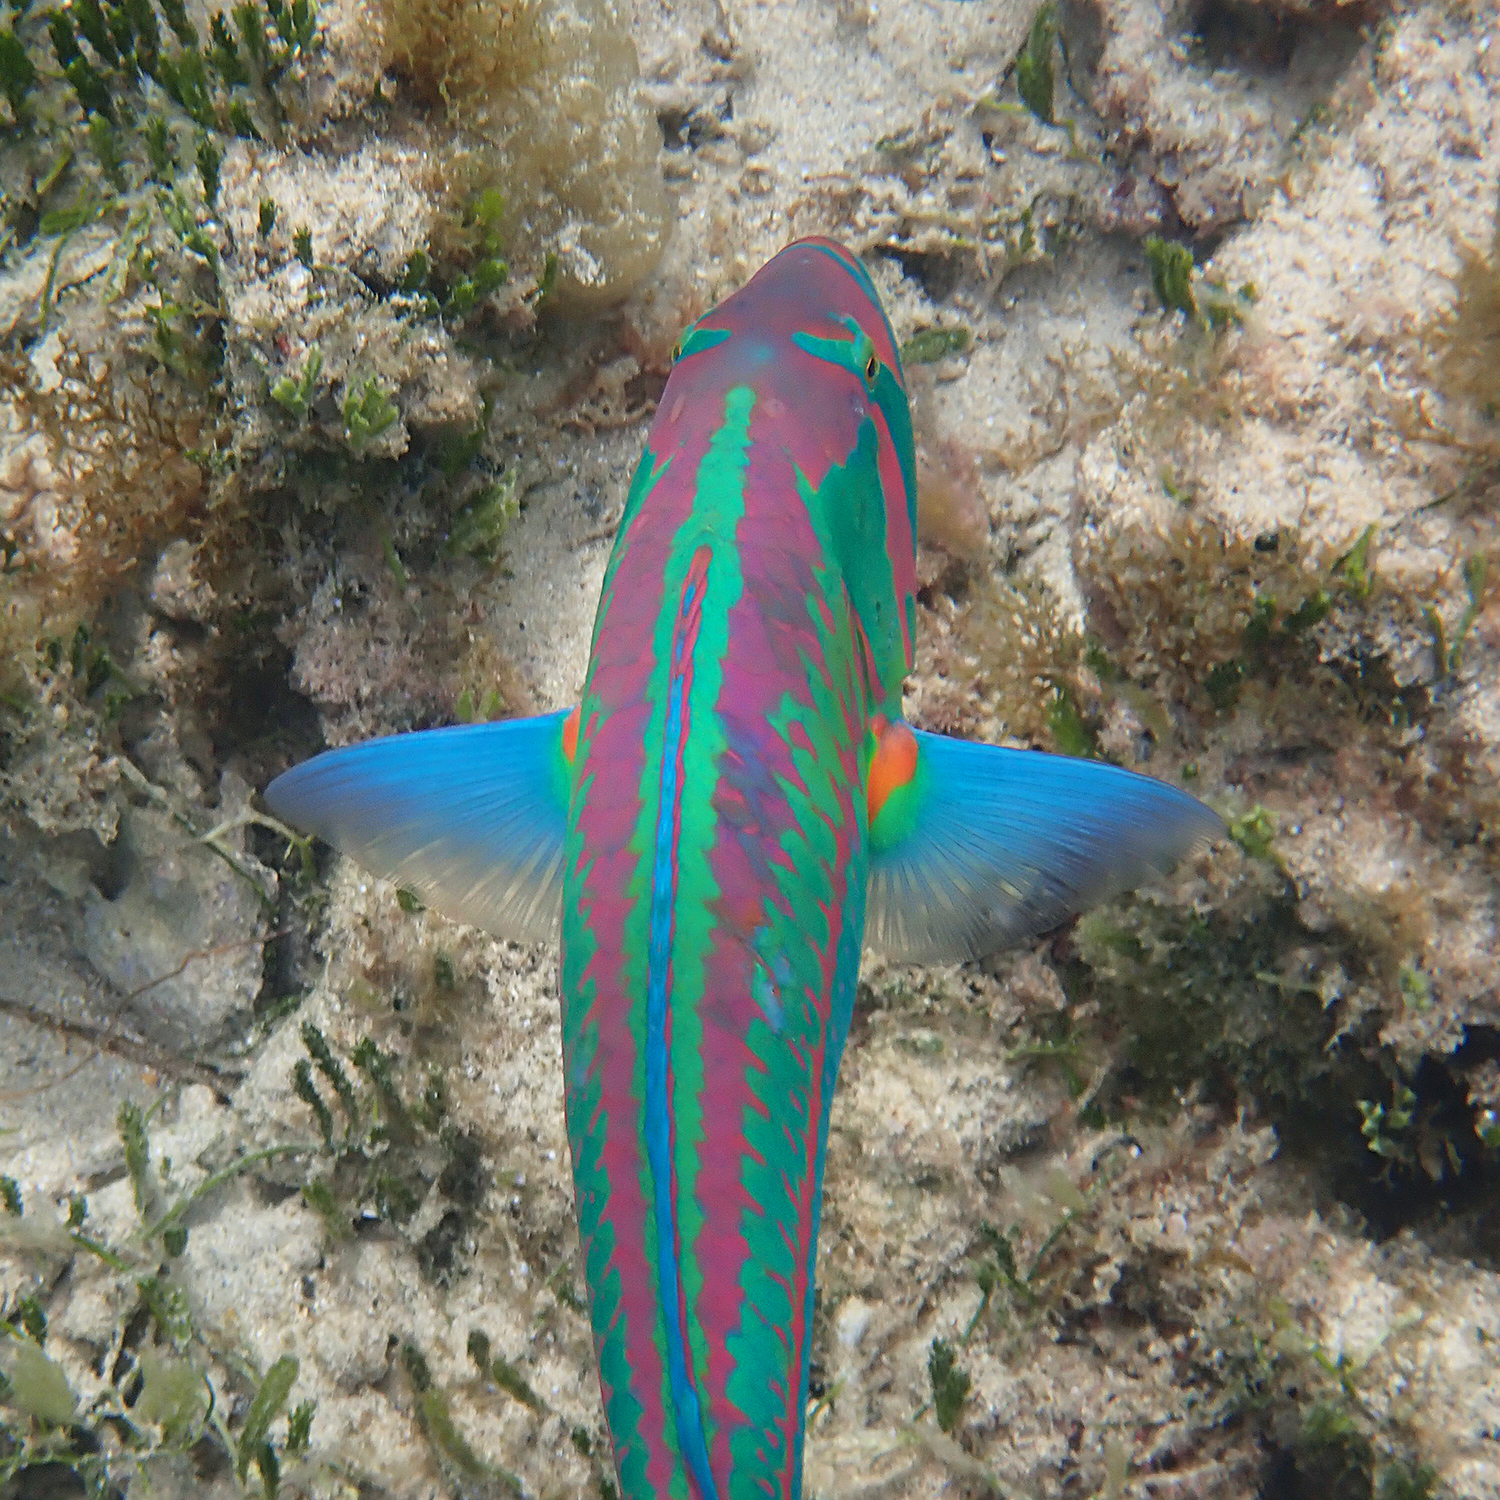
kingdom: Animalia
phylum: Chordata
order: Perciformes
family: Labridae
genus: Thalassoma
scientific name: Thalassoma purpureum
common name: Parrotfish
